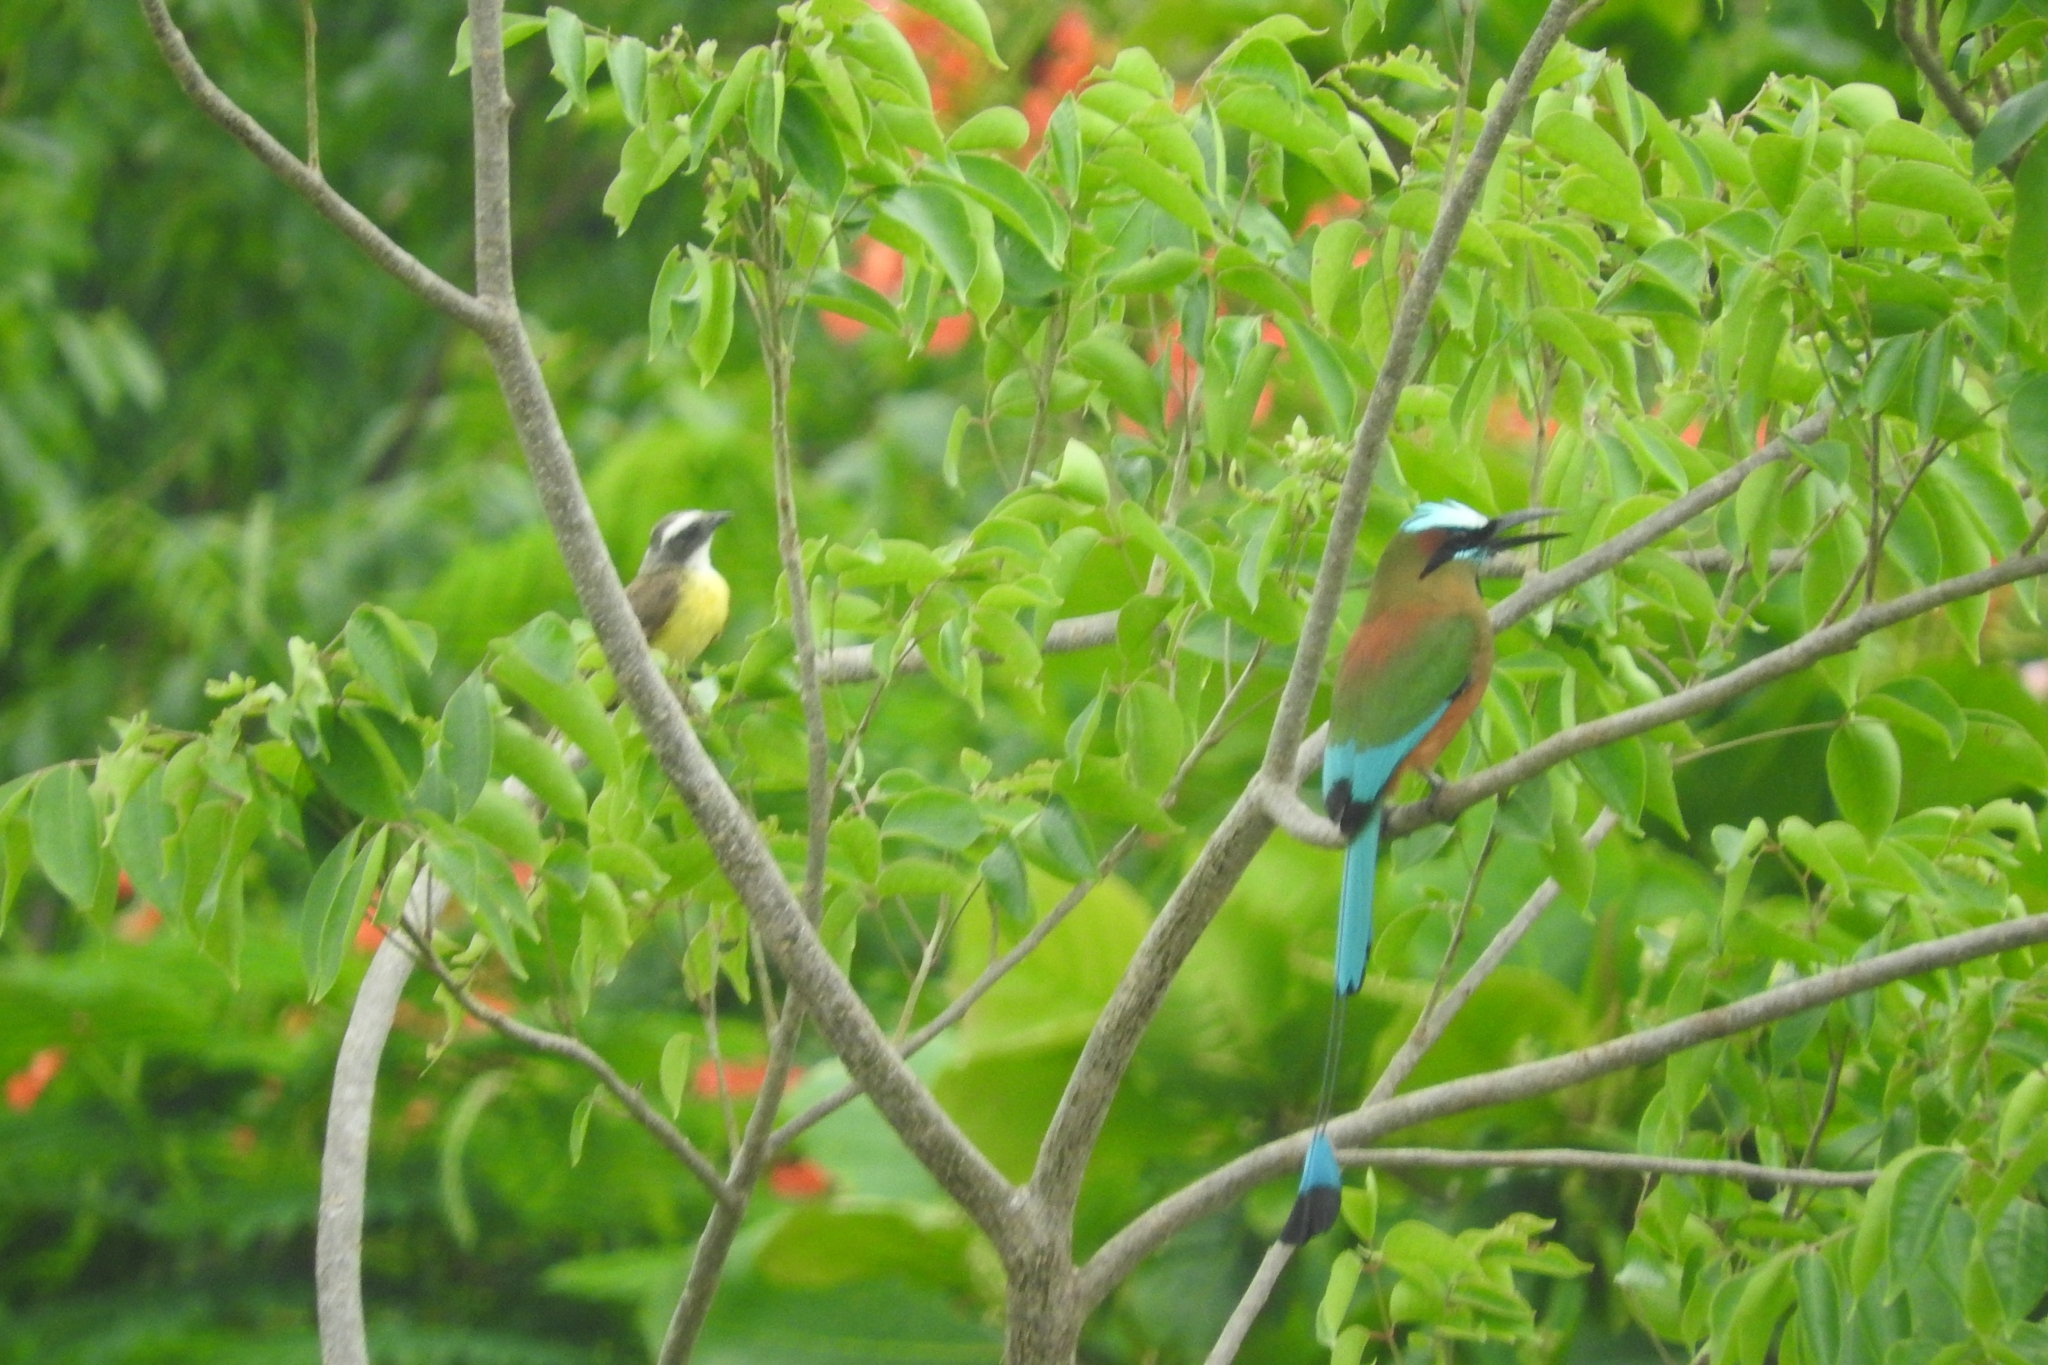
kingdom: Animalia
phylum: Chordata
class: Aves
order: Coraciiformes
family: Momotidae
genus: Eumomota
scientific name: Eumomota superciliosa
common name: Turquoise-browed motmot
